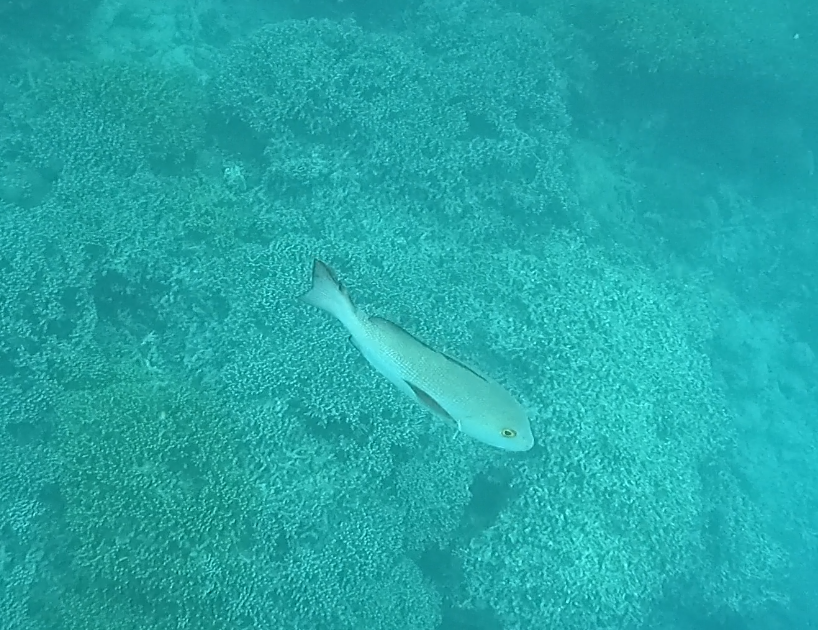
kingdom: Animalia
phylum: Chordata
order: Perciformes
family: Lutjanidae
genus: Lutjanus
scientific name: Lutjanus bohar
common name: Red bass
